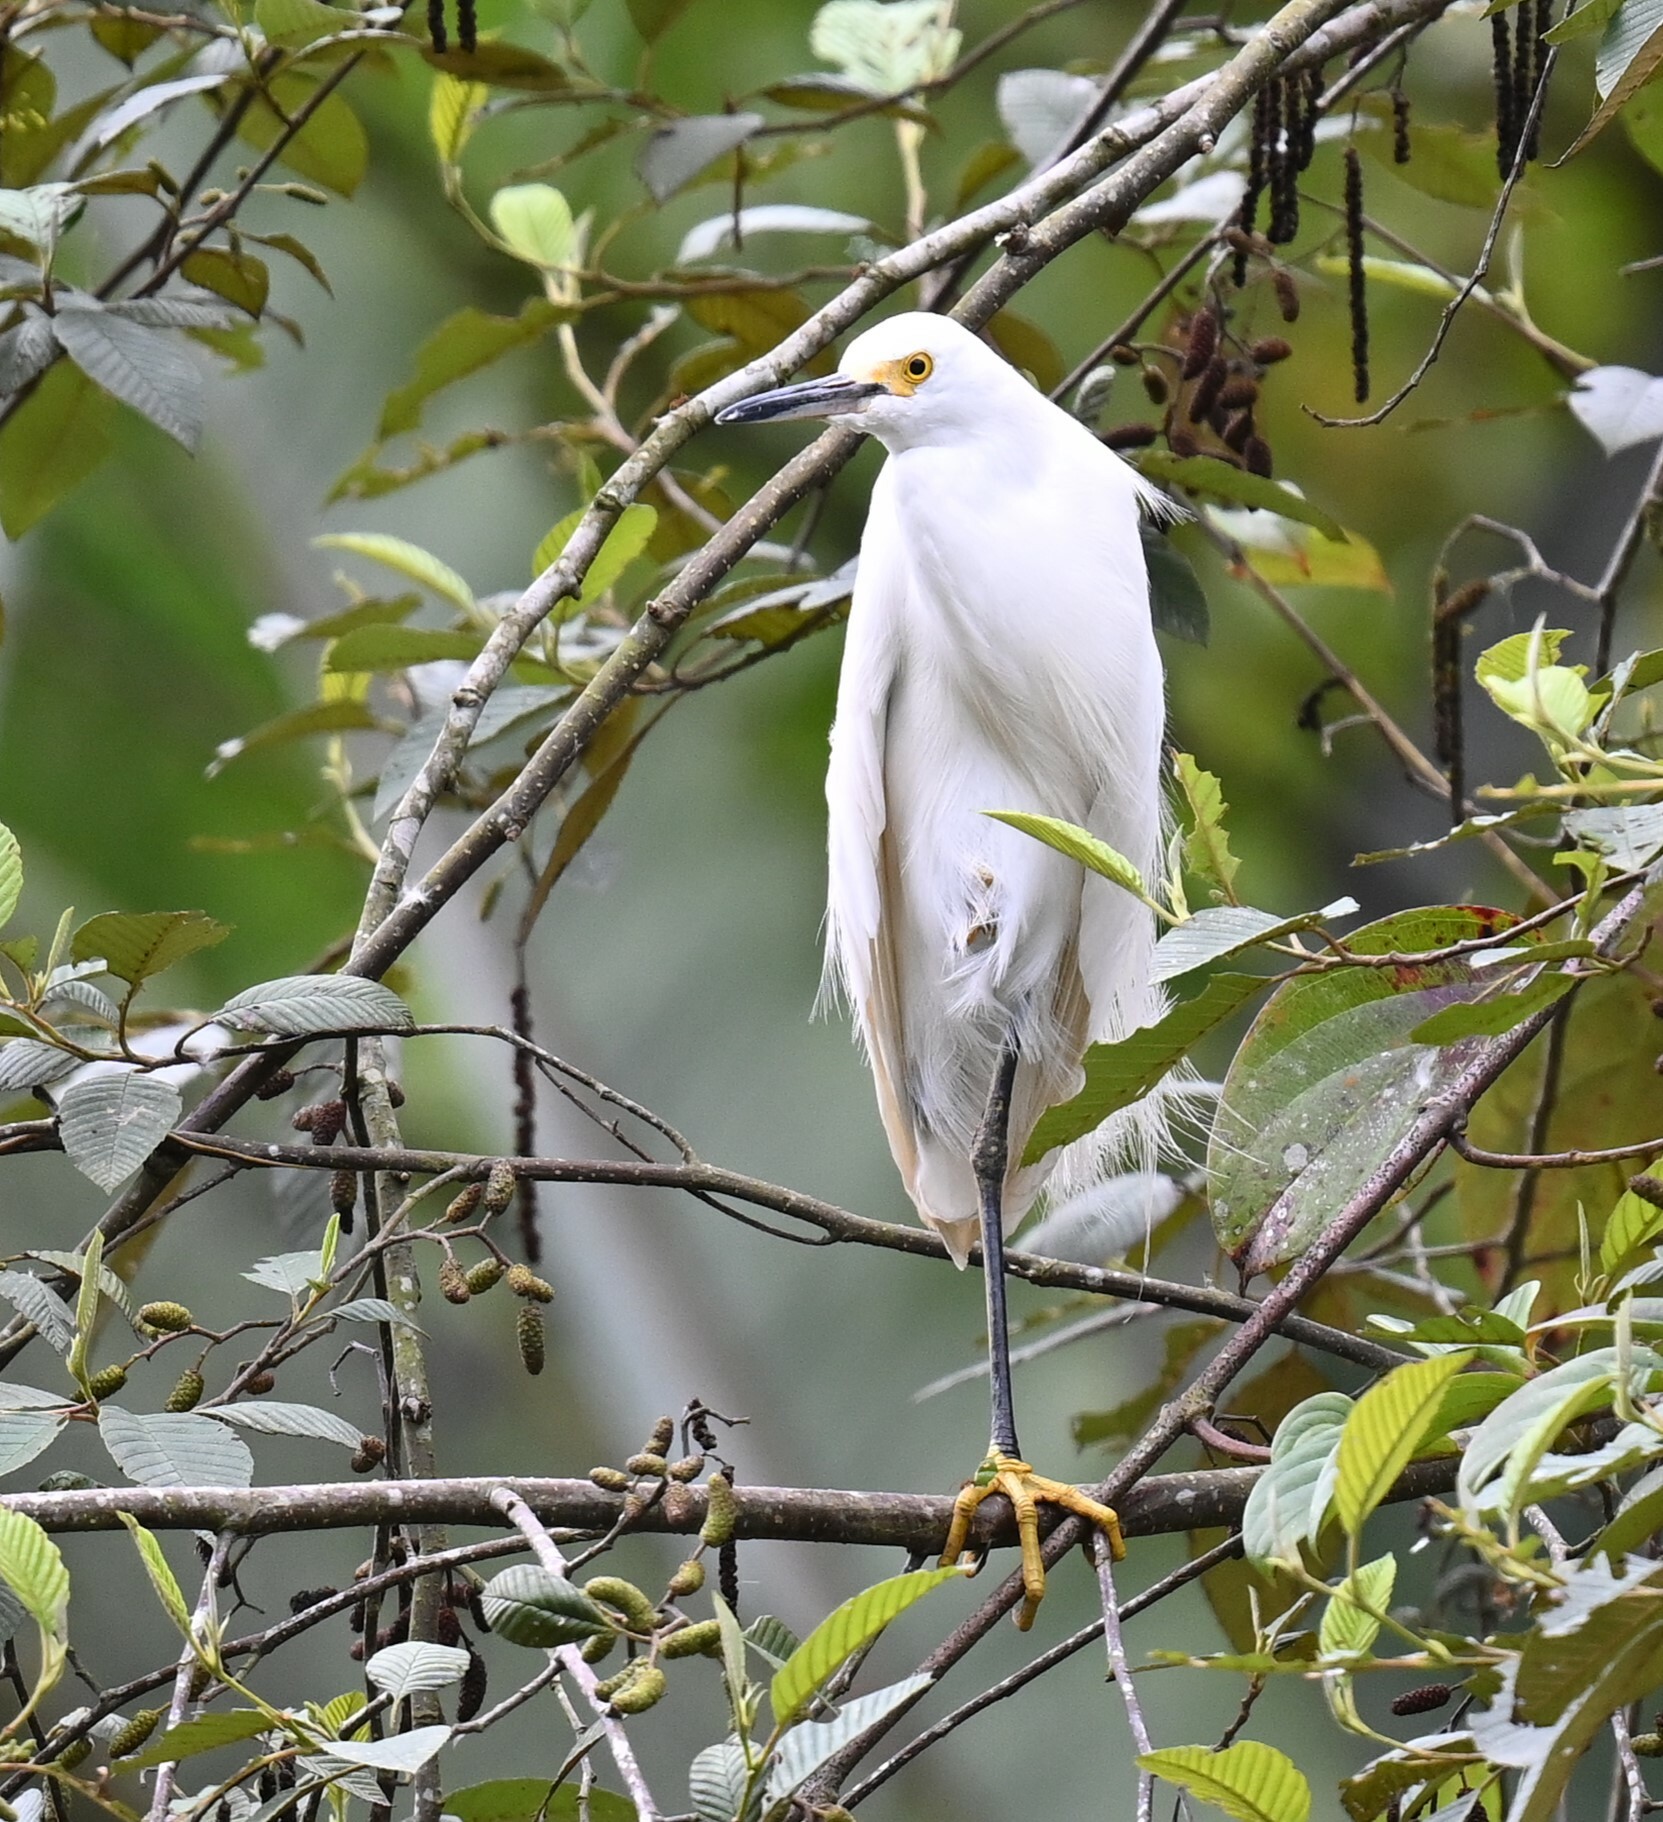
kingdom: Animalia
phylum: Chordata
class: Aves
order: Pelecaniformes
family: Ardeidae
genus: Egretta
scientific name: Egretta thula
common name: Snowy egret
